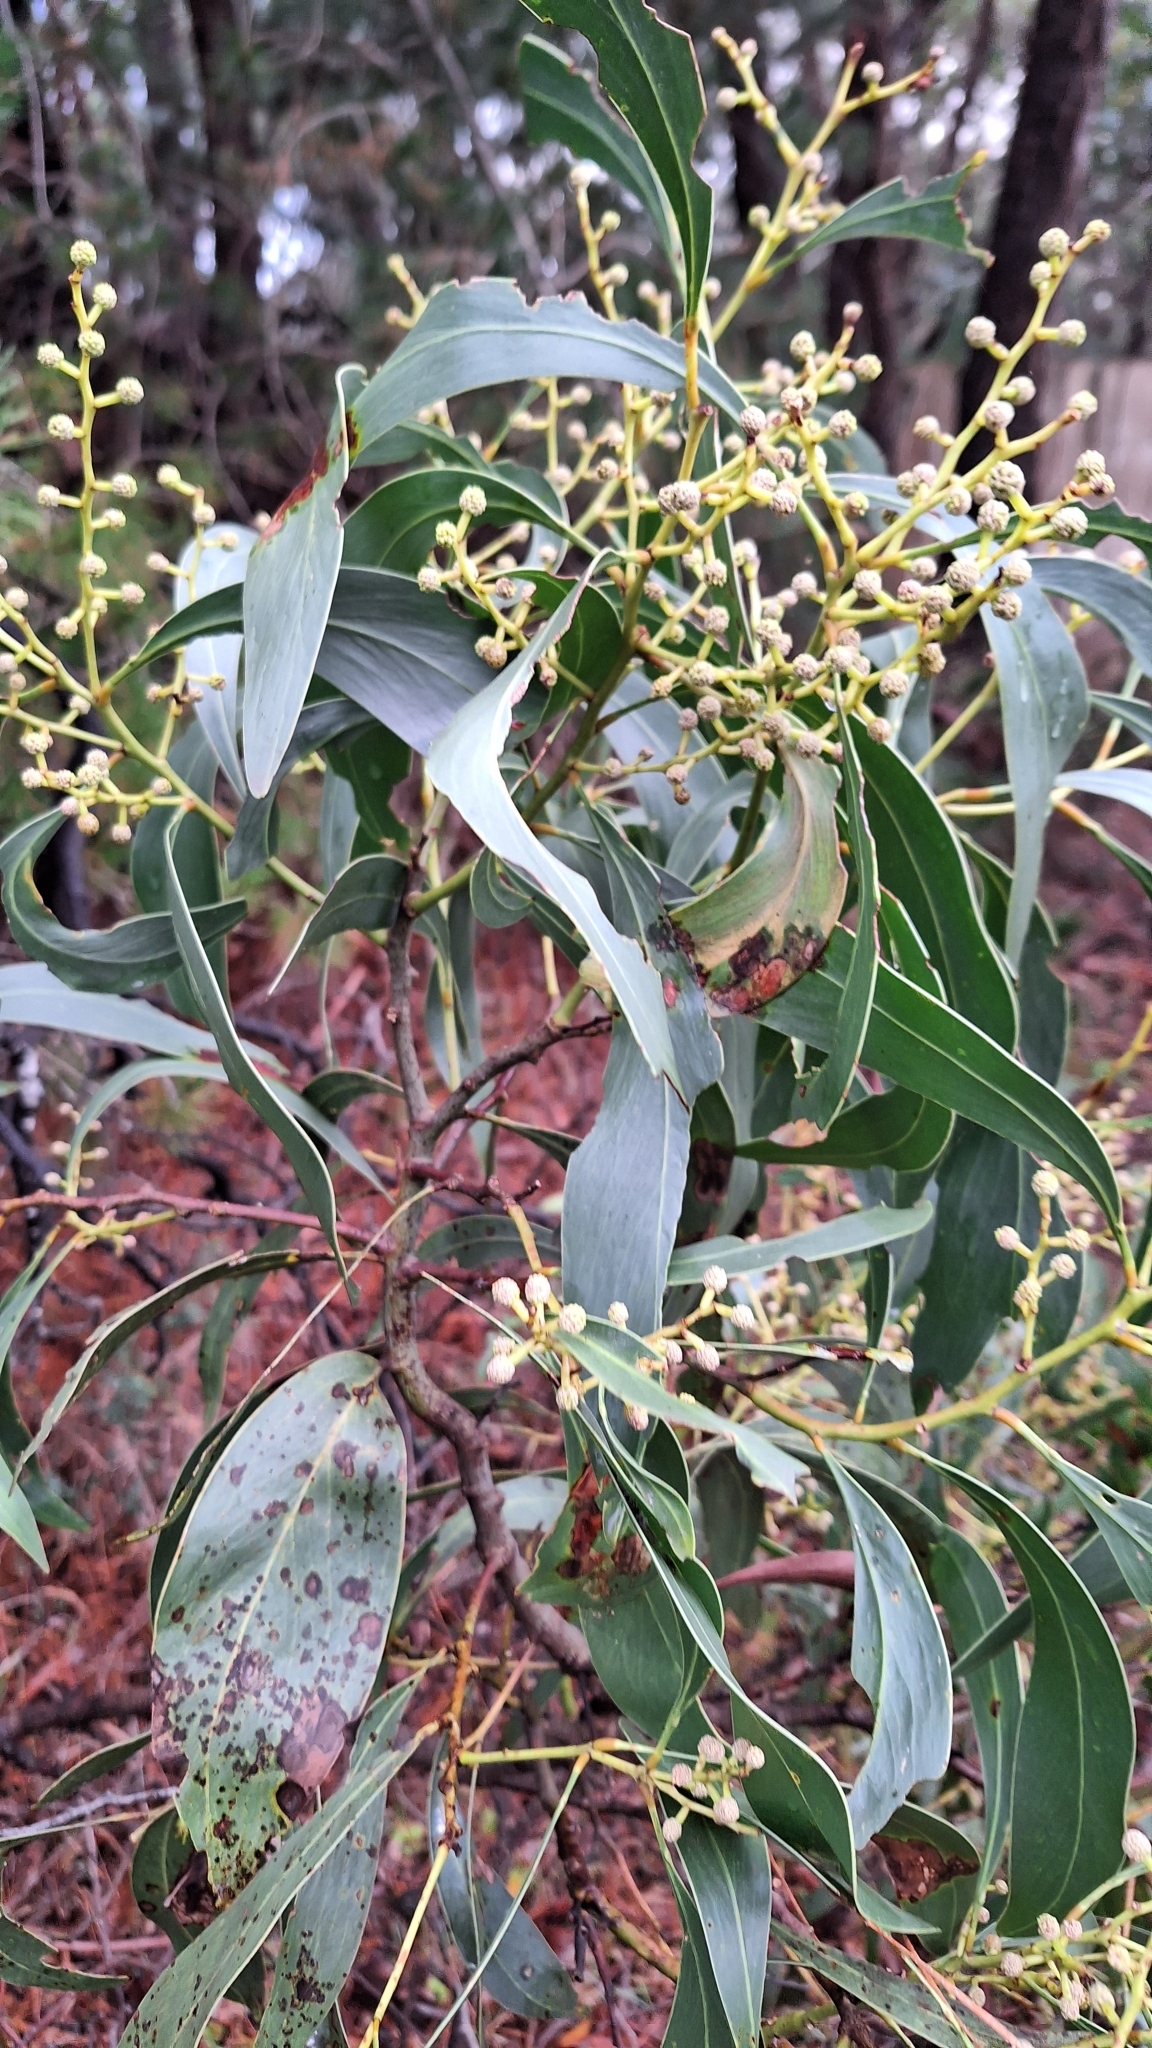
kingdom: Plantae
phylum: Tracheophyta
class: Magnoliopsida
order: Fabales
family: Fabaceae
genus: Acacia
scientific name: Acacia pycnantha
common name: Golden wattle
